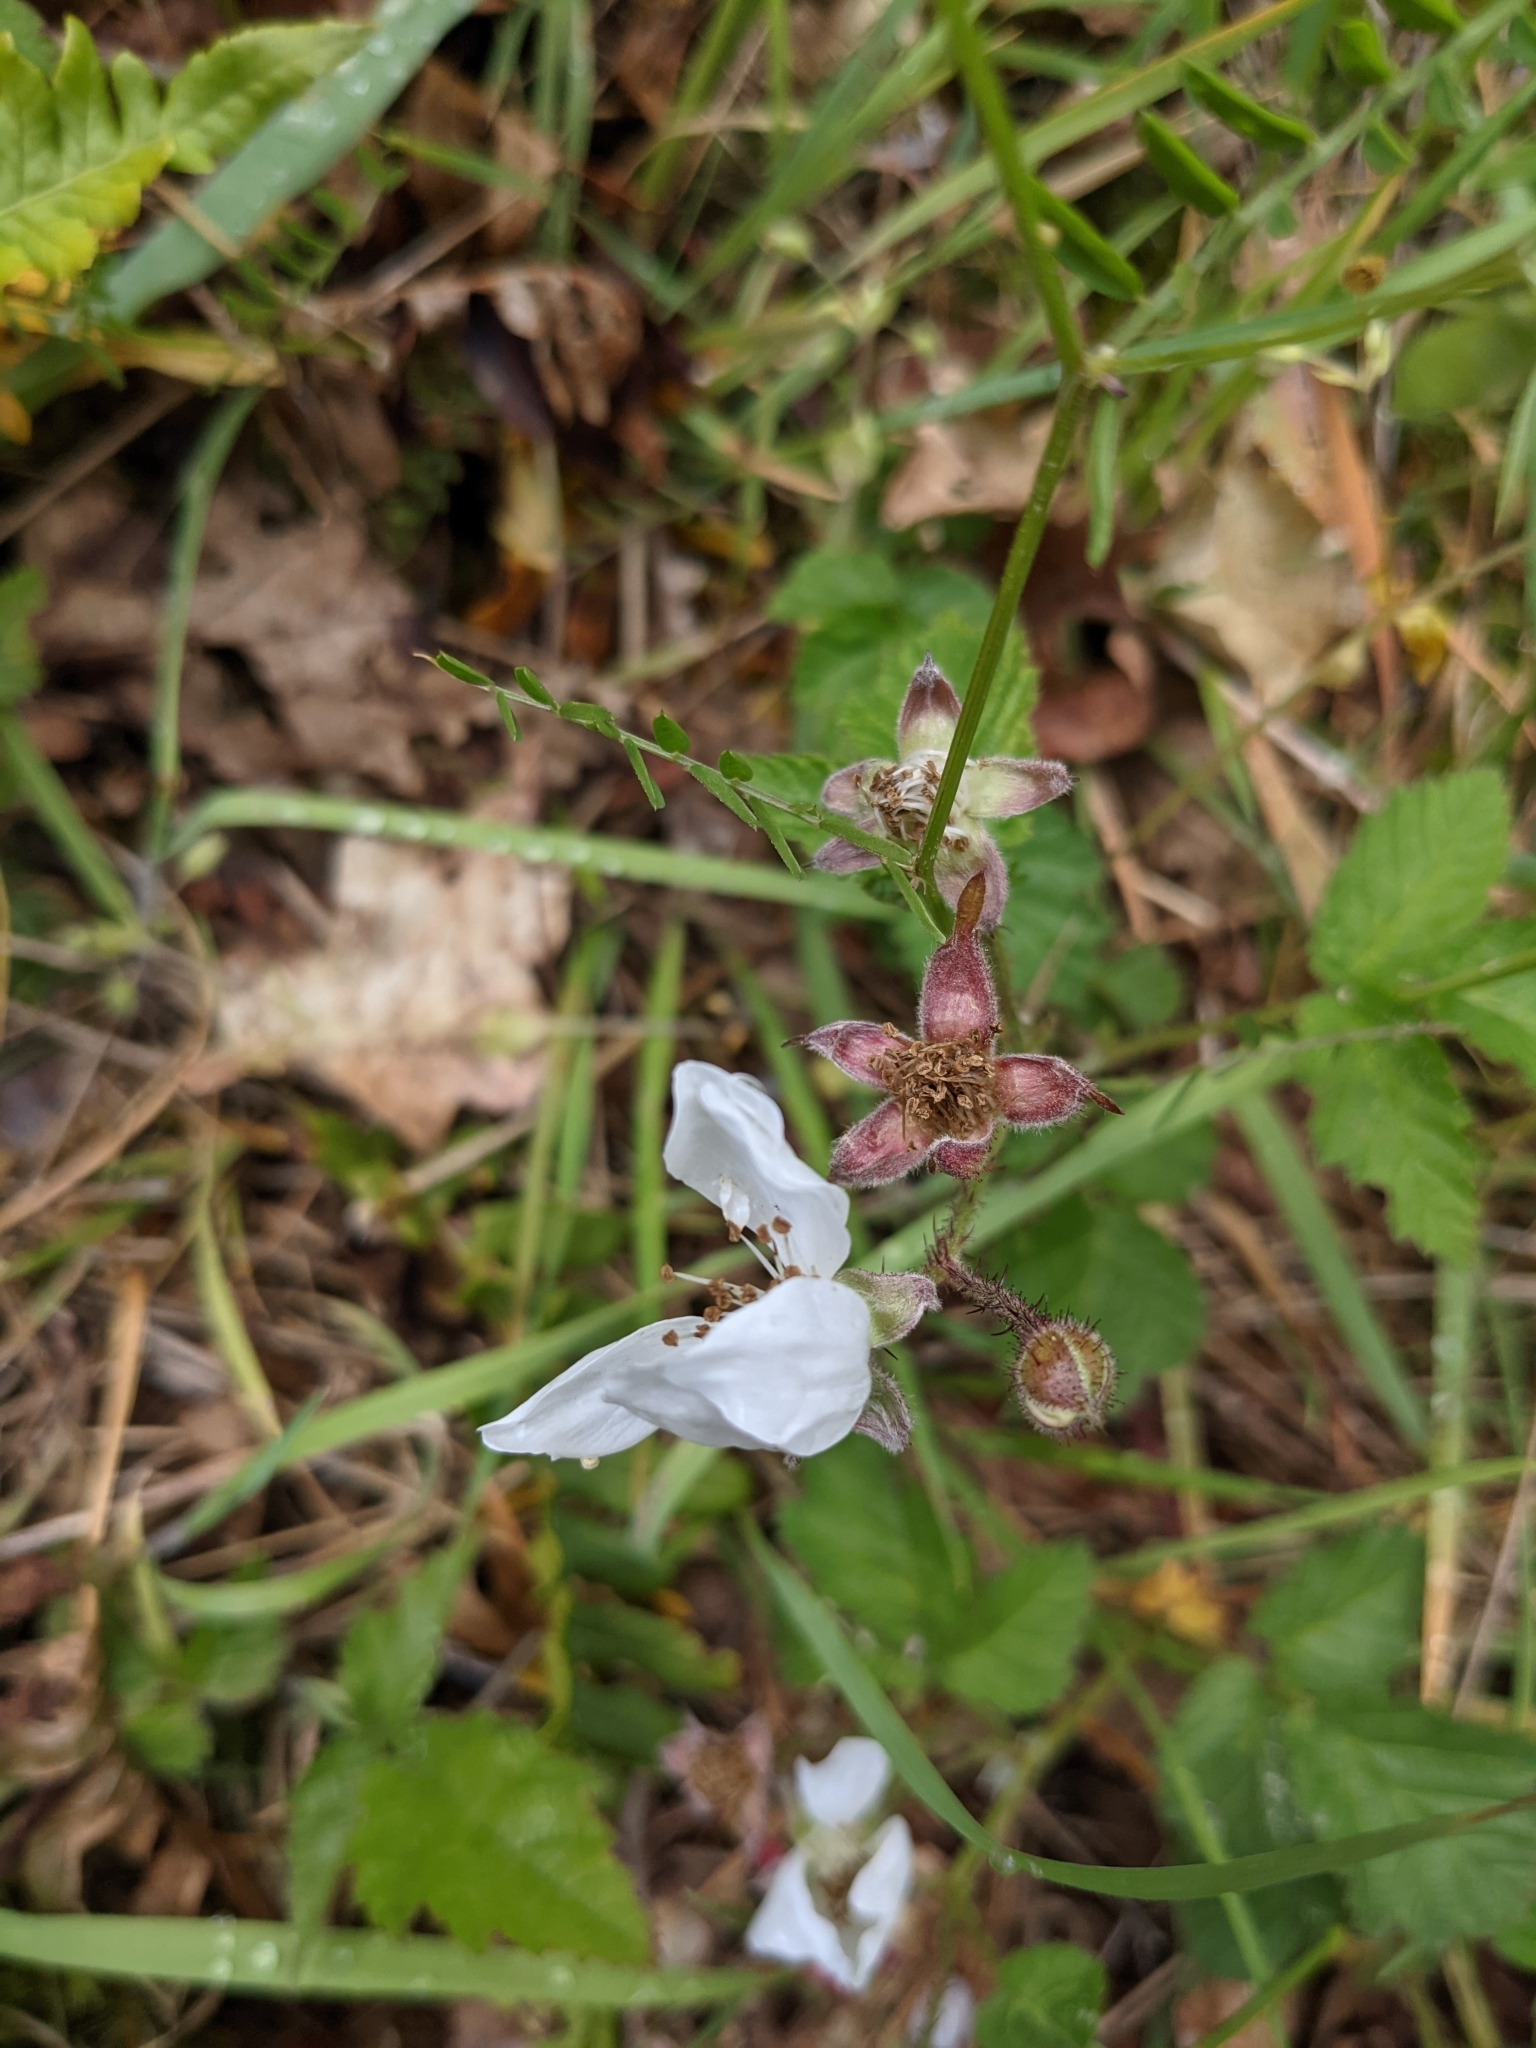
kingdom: Plantae
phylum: Tracheophyta
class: Magnoliopsida
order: Rosales
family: Rosaceae
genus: Rubus
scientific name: Rubus ursinus
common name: Pacific blackberry
